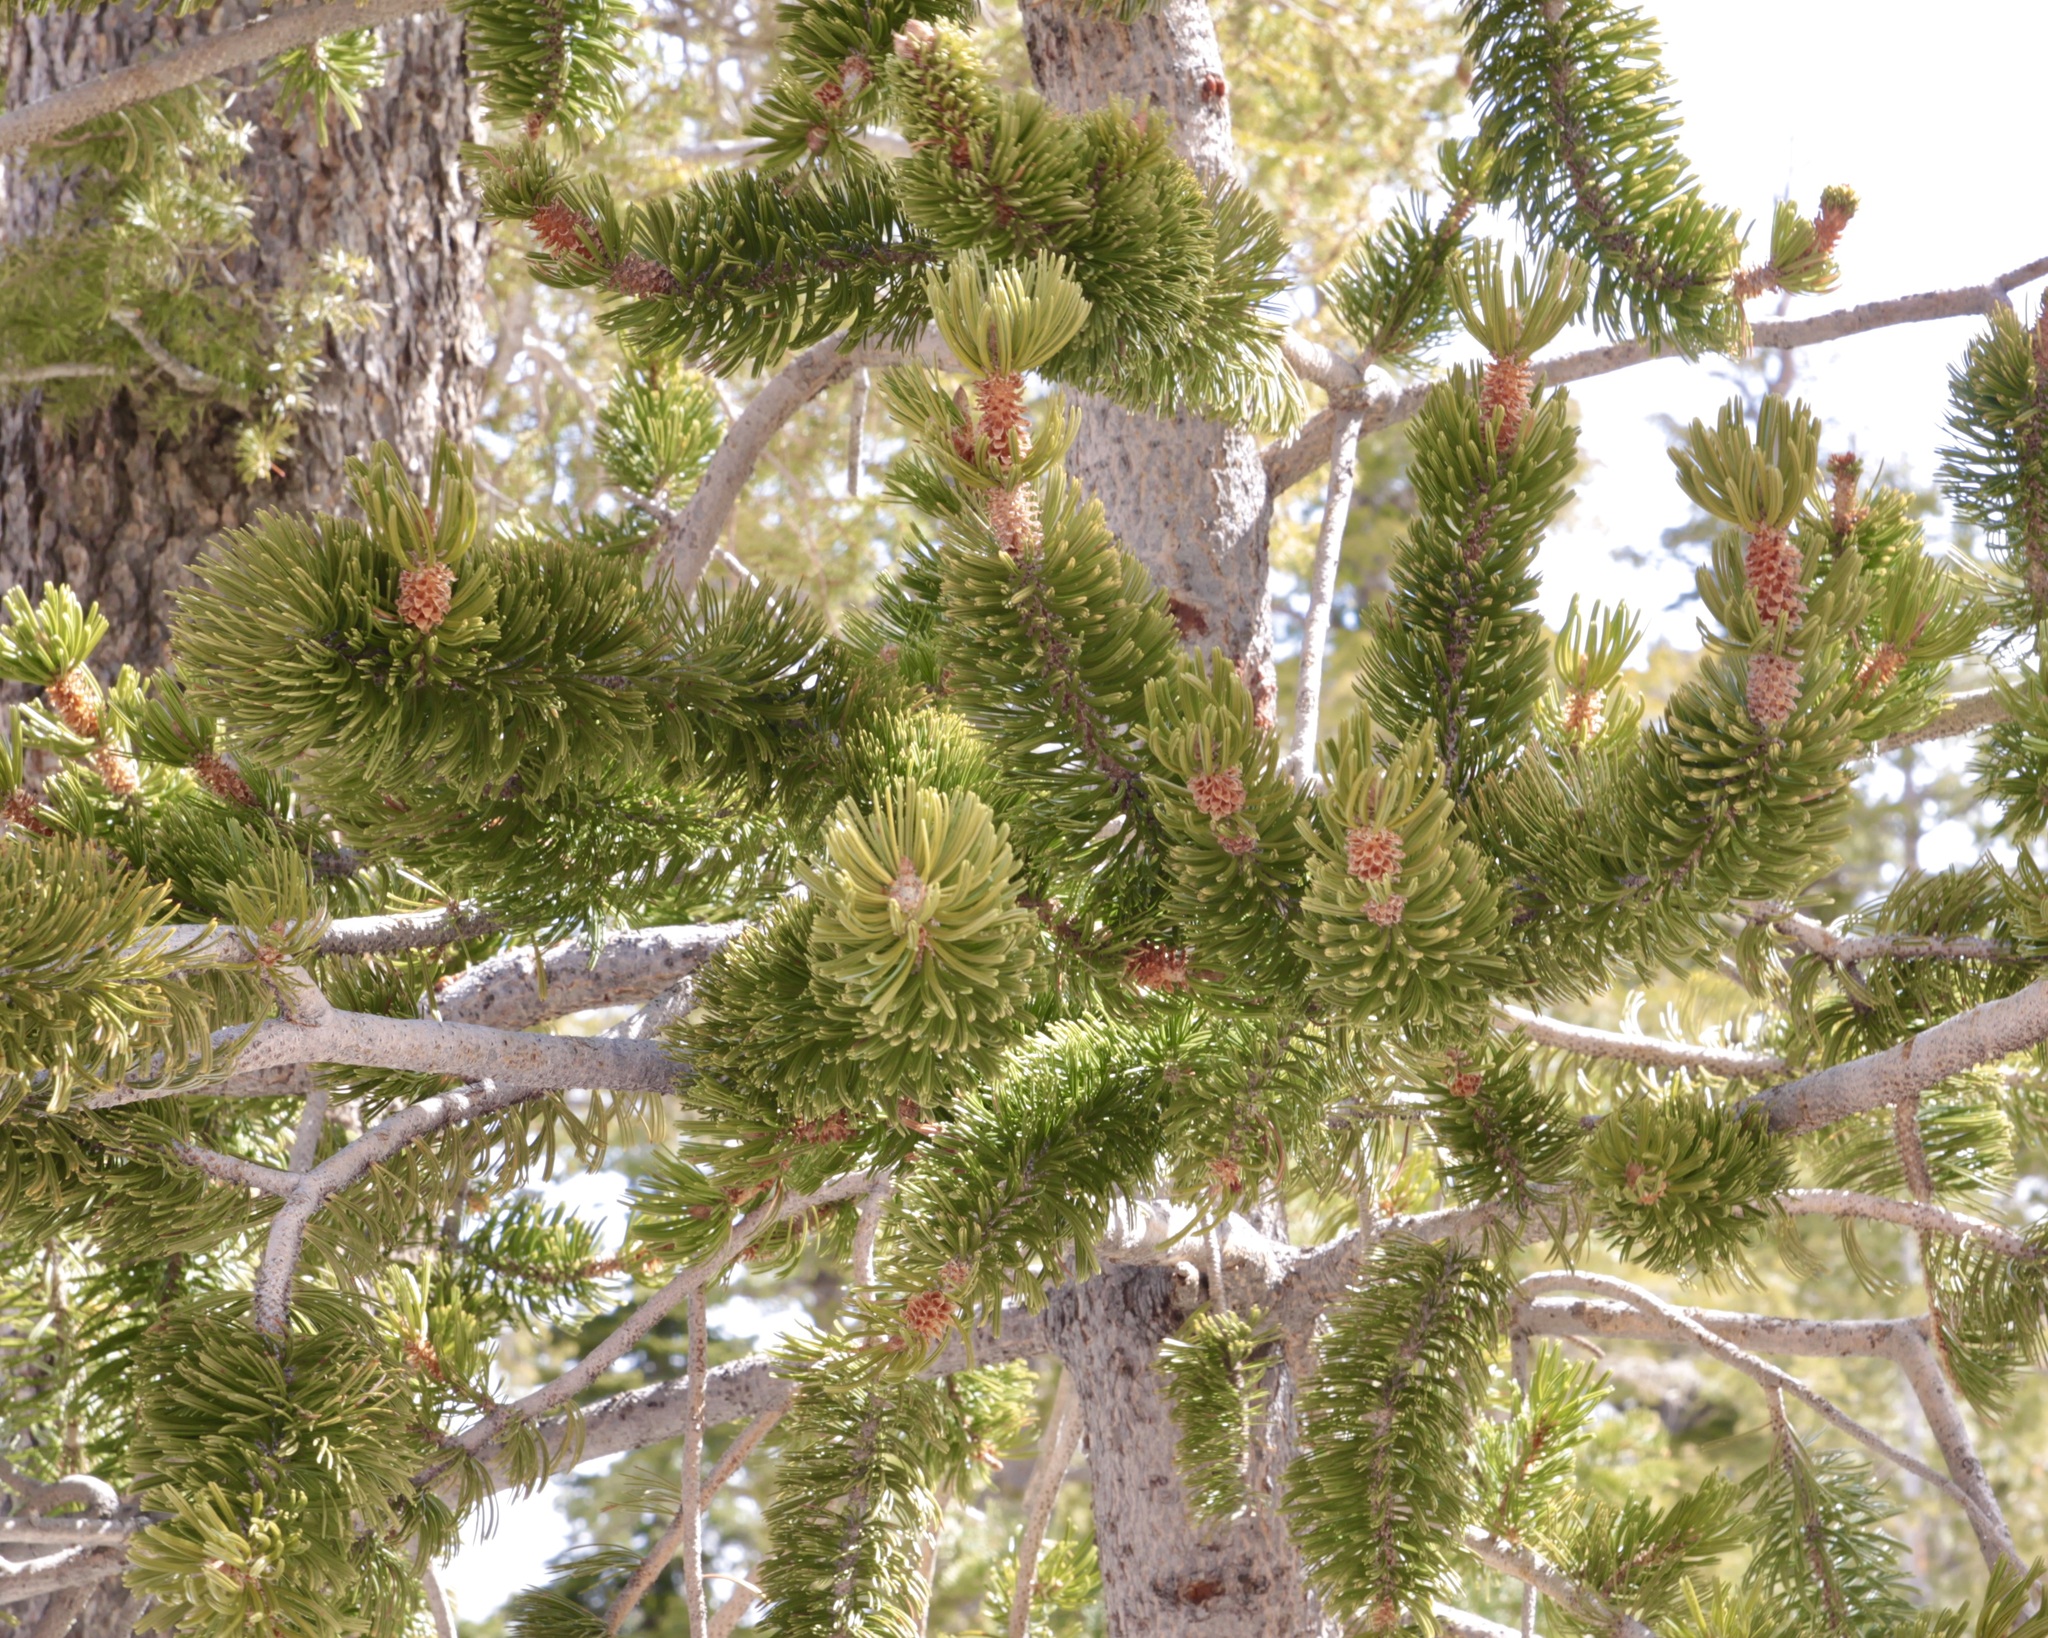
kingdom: Plantae
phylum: Tracheophyta
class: Pinopsida
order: Pinales
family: Pinaceae
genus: Pinus
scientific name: Pinus longaeva
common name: Intermountain bristlecone pine
